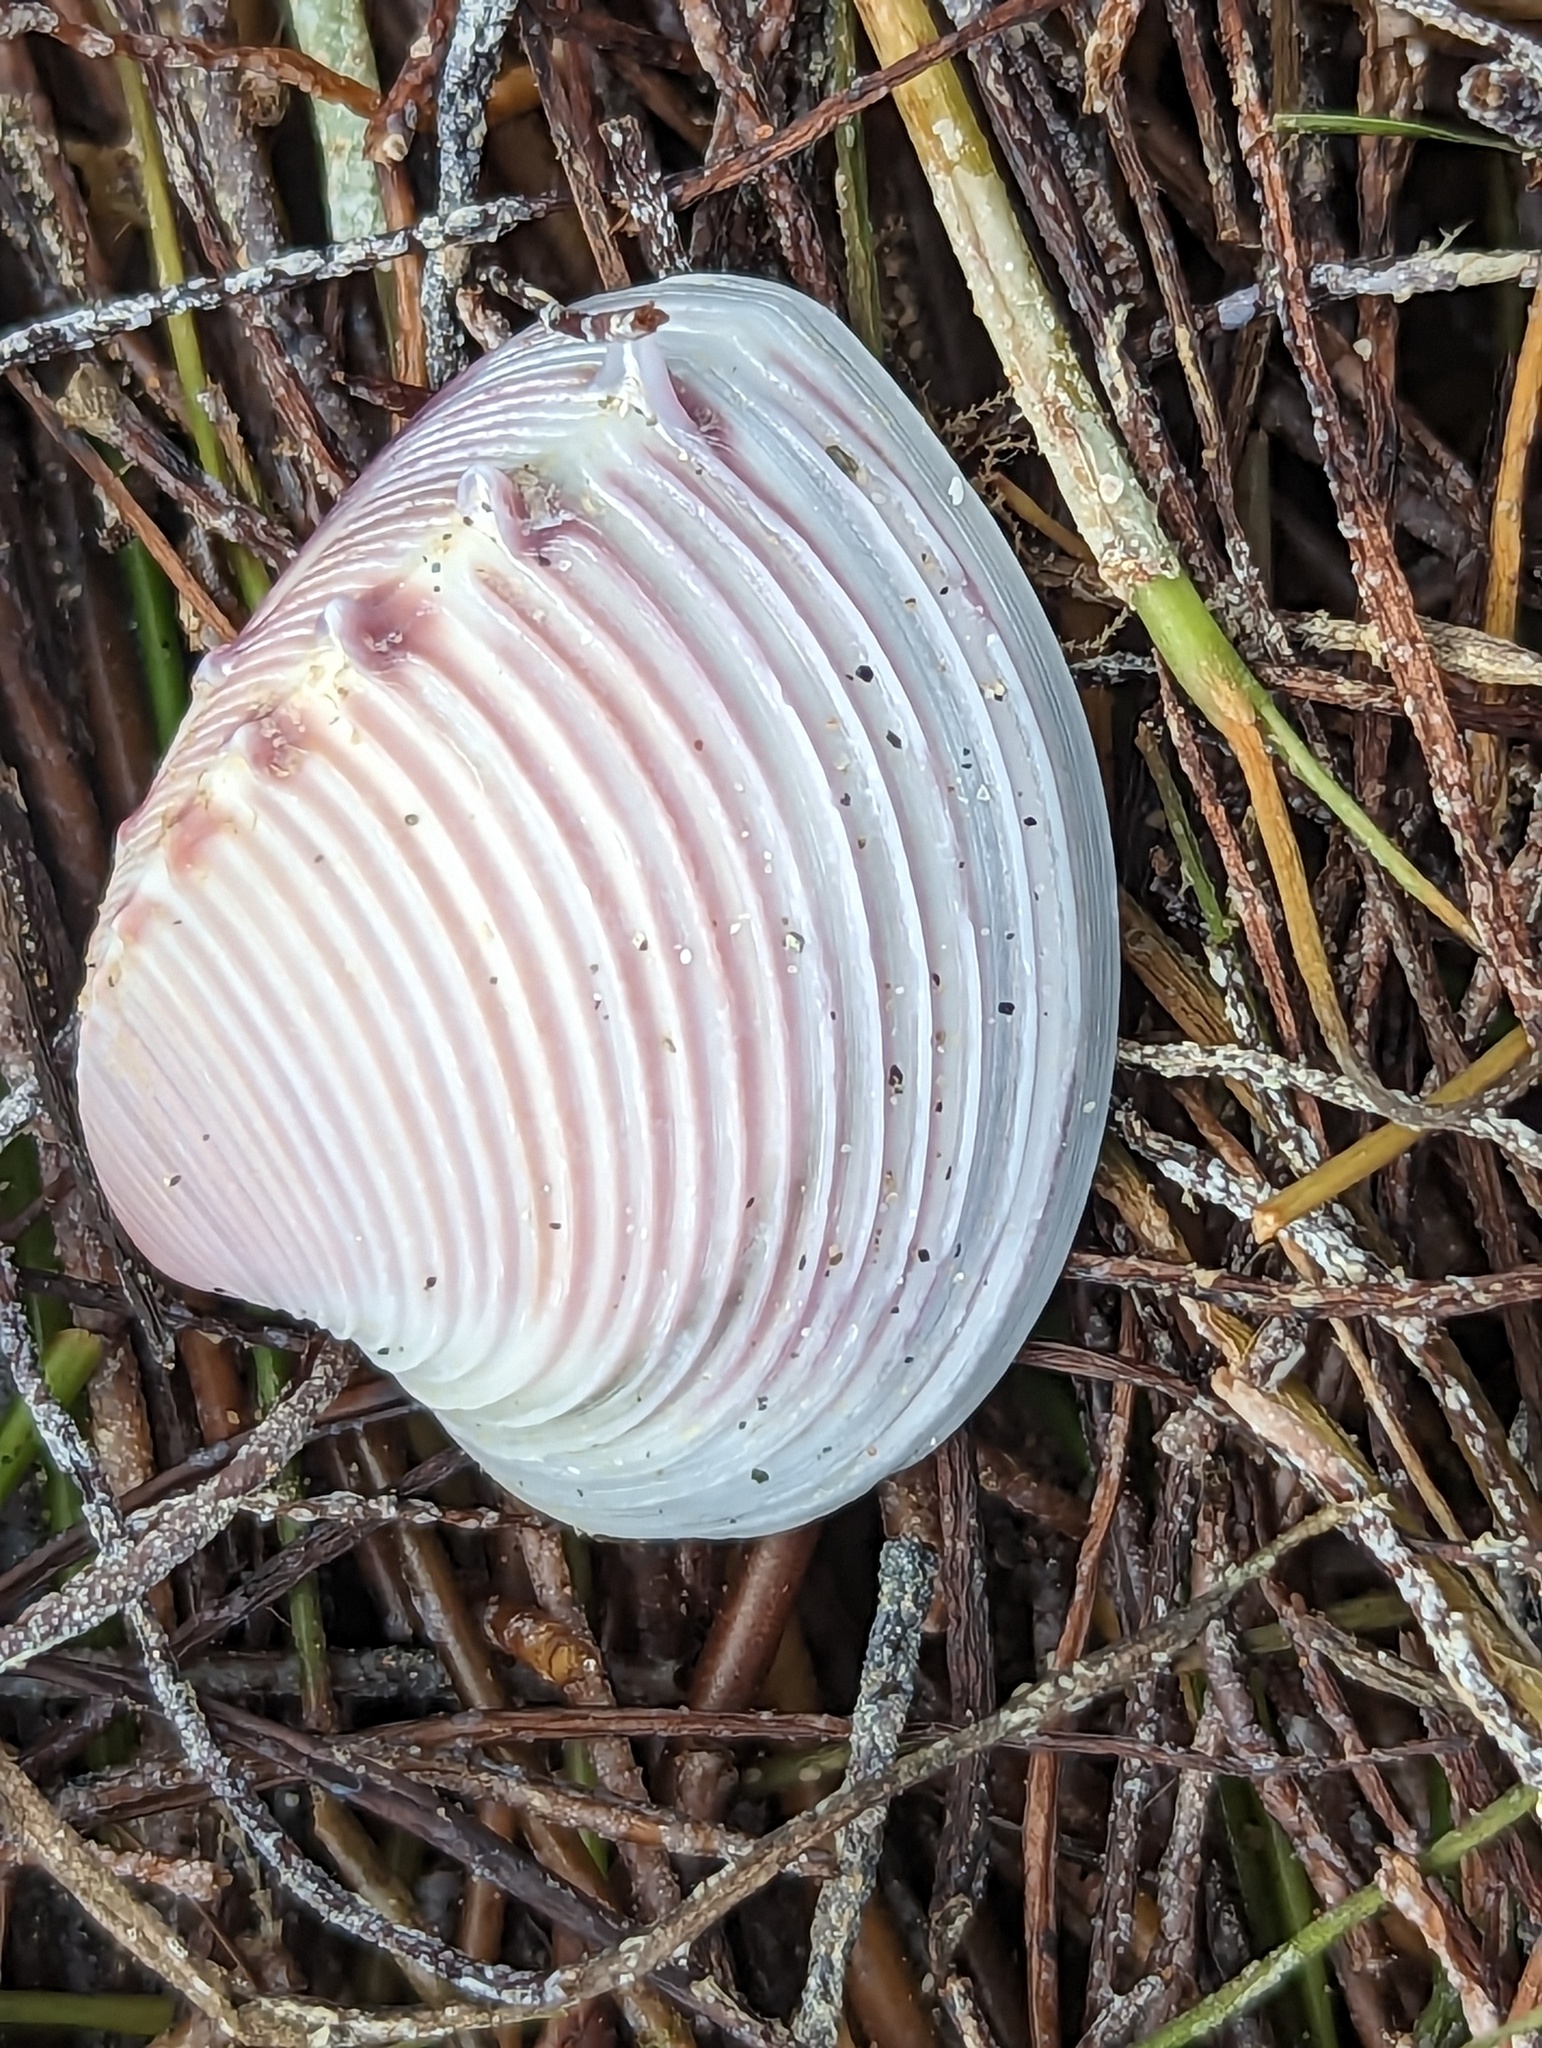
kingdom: Animalia
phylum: Mollusca
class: Bivalvia
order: Venerida
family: Veneridae
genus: Hysteroconcha
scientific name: Hysteroconcha dione
